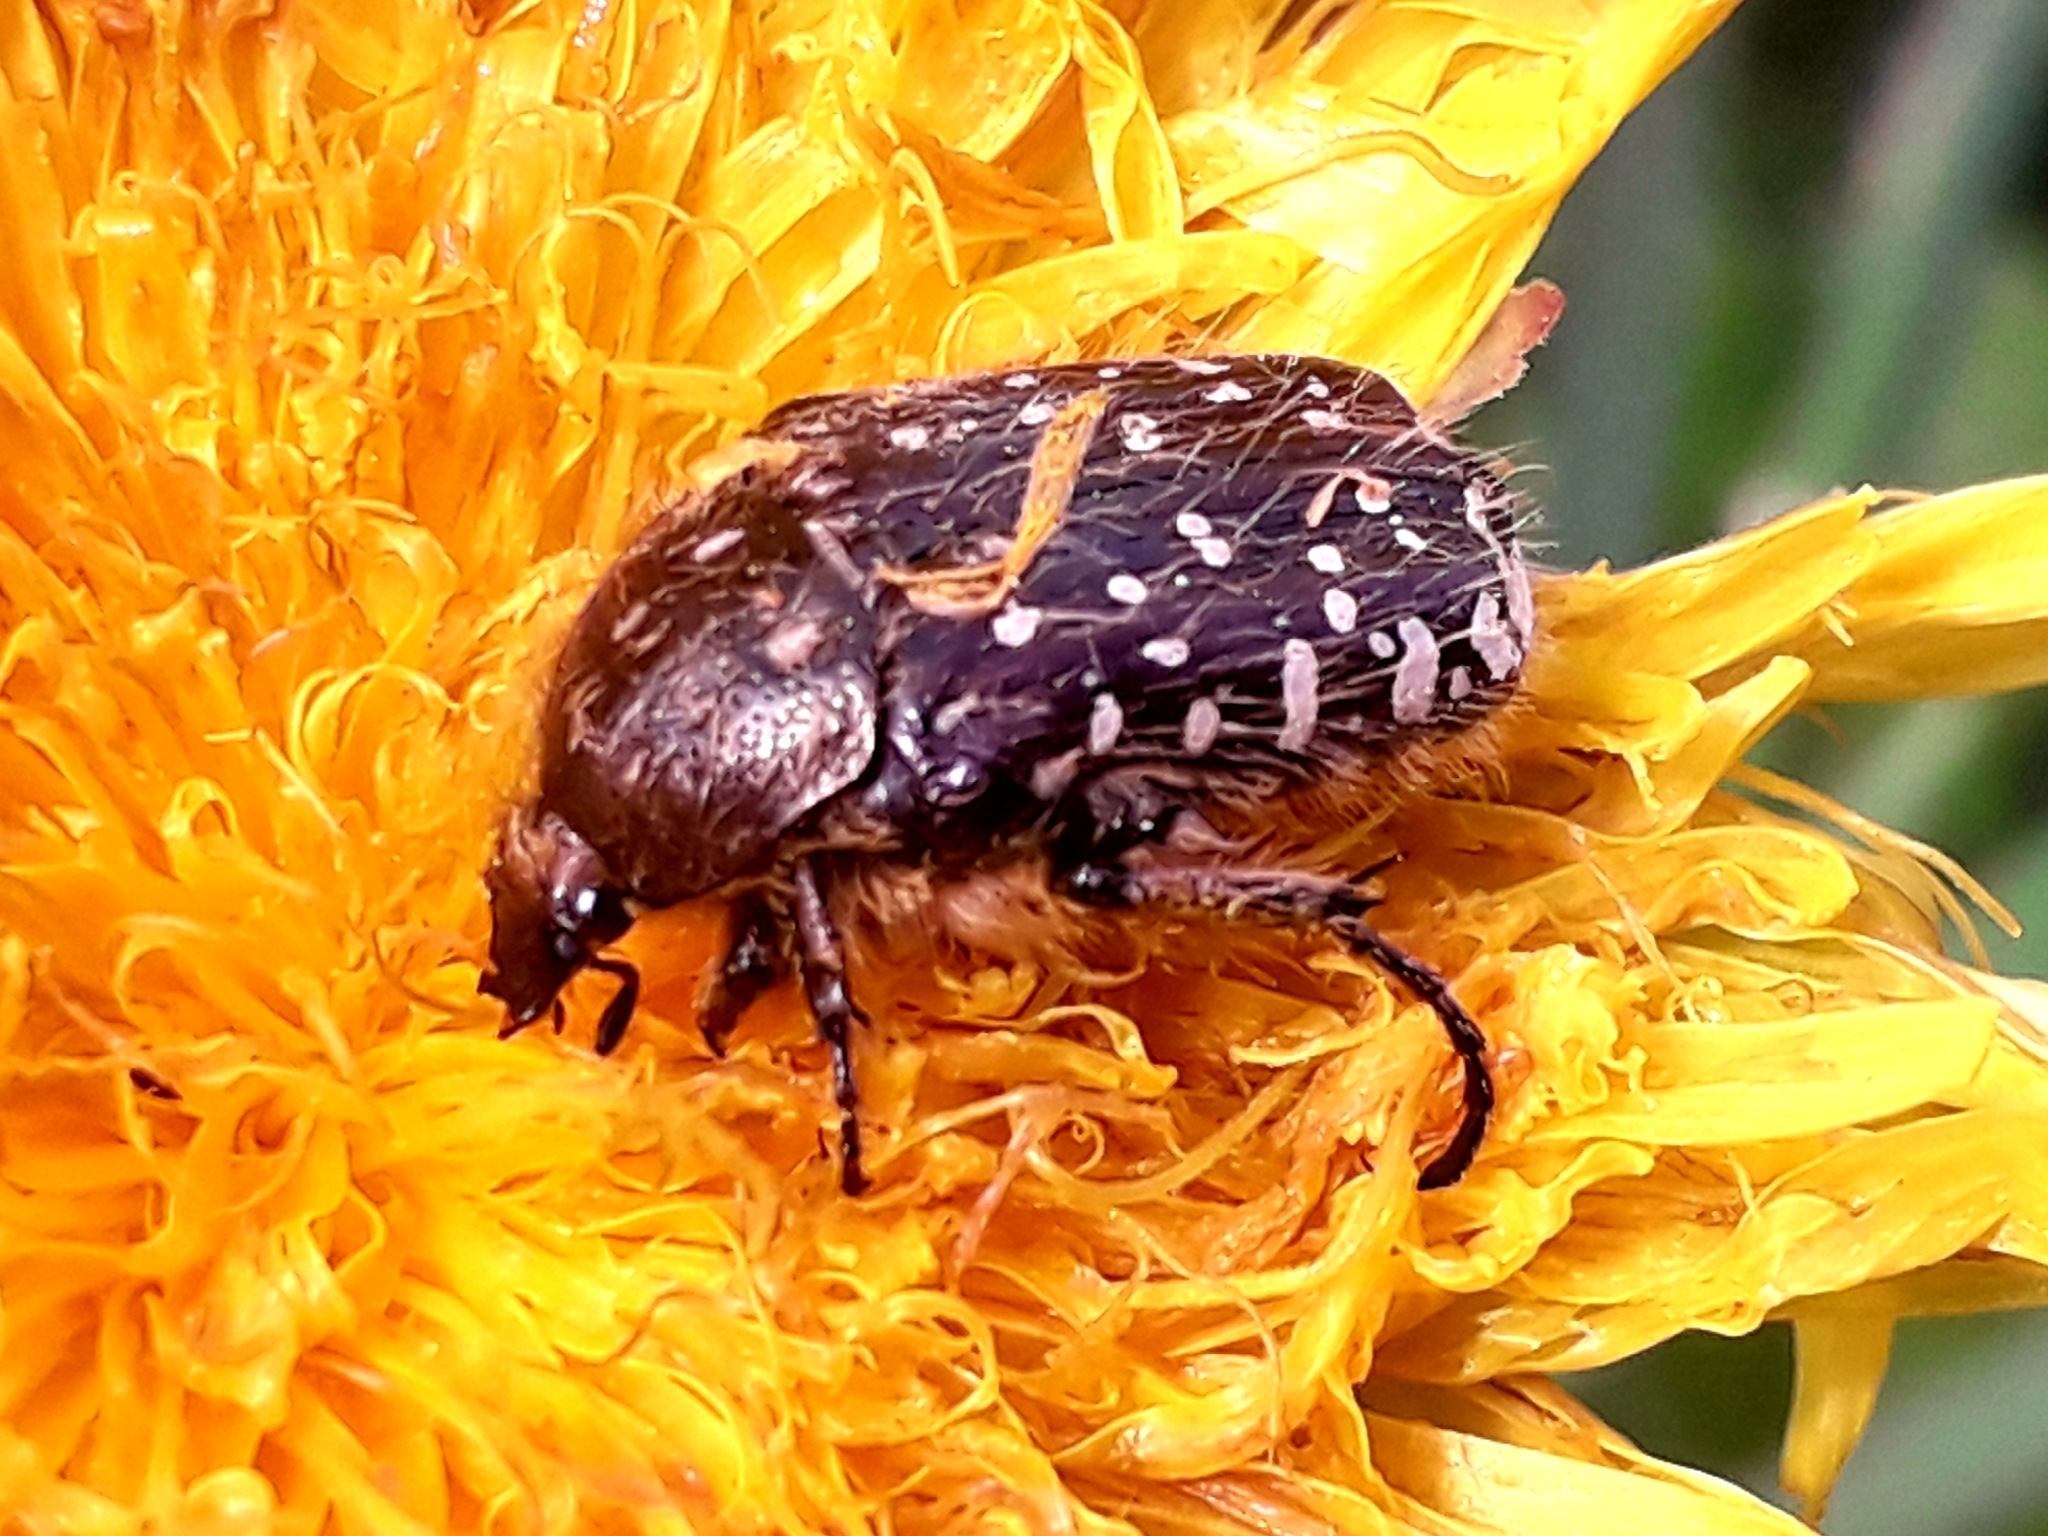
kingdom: Animalia
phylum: Arthropoda
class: Insecta
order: Coleoptera
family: Scarabaeidae
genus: Oxythyrea
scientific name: Oxythyrea funesta
